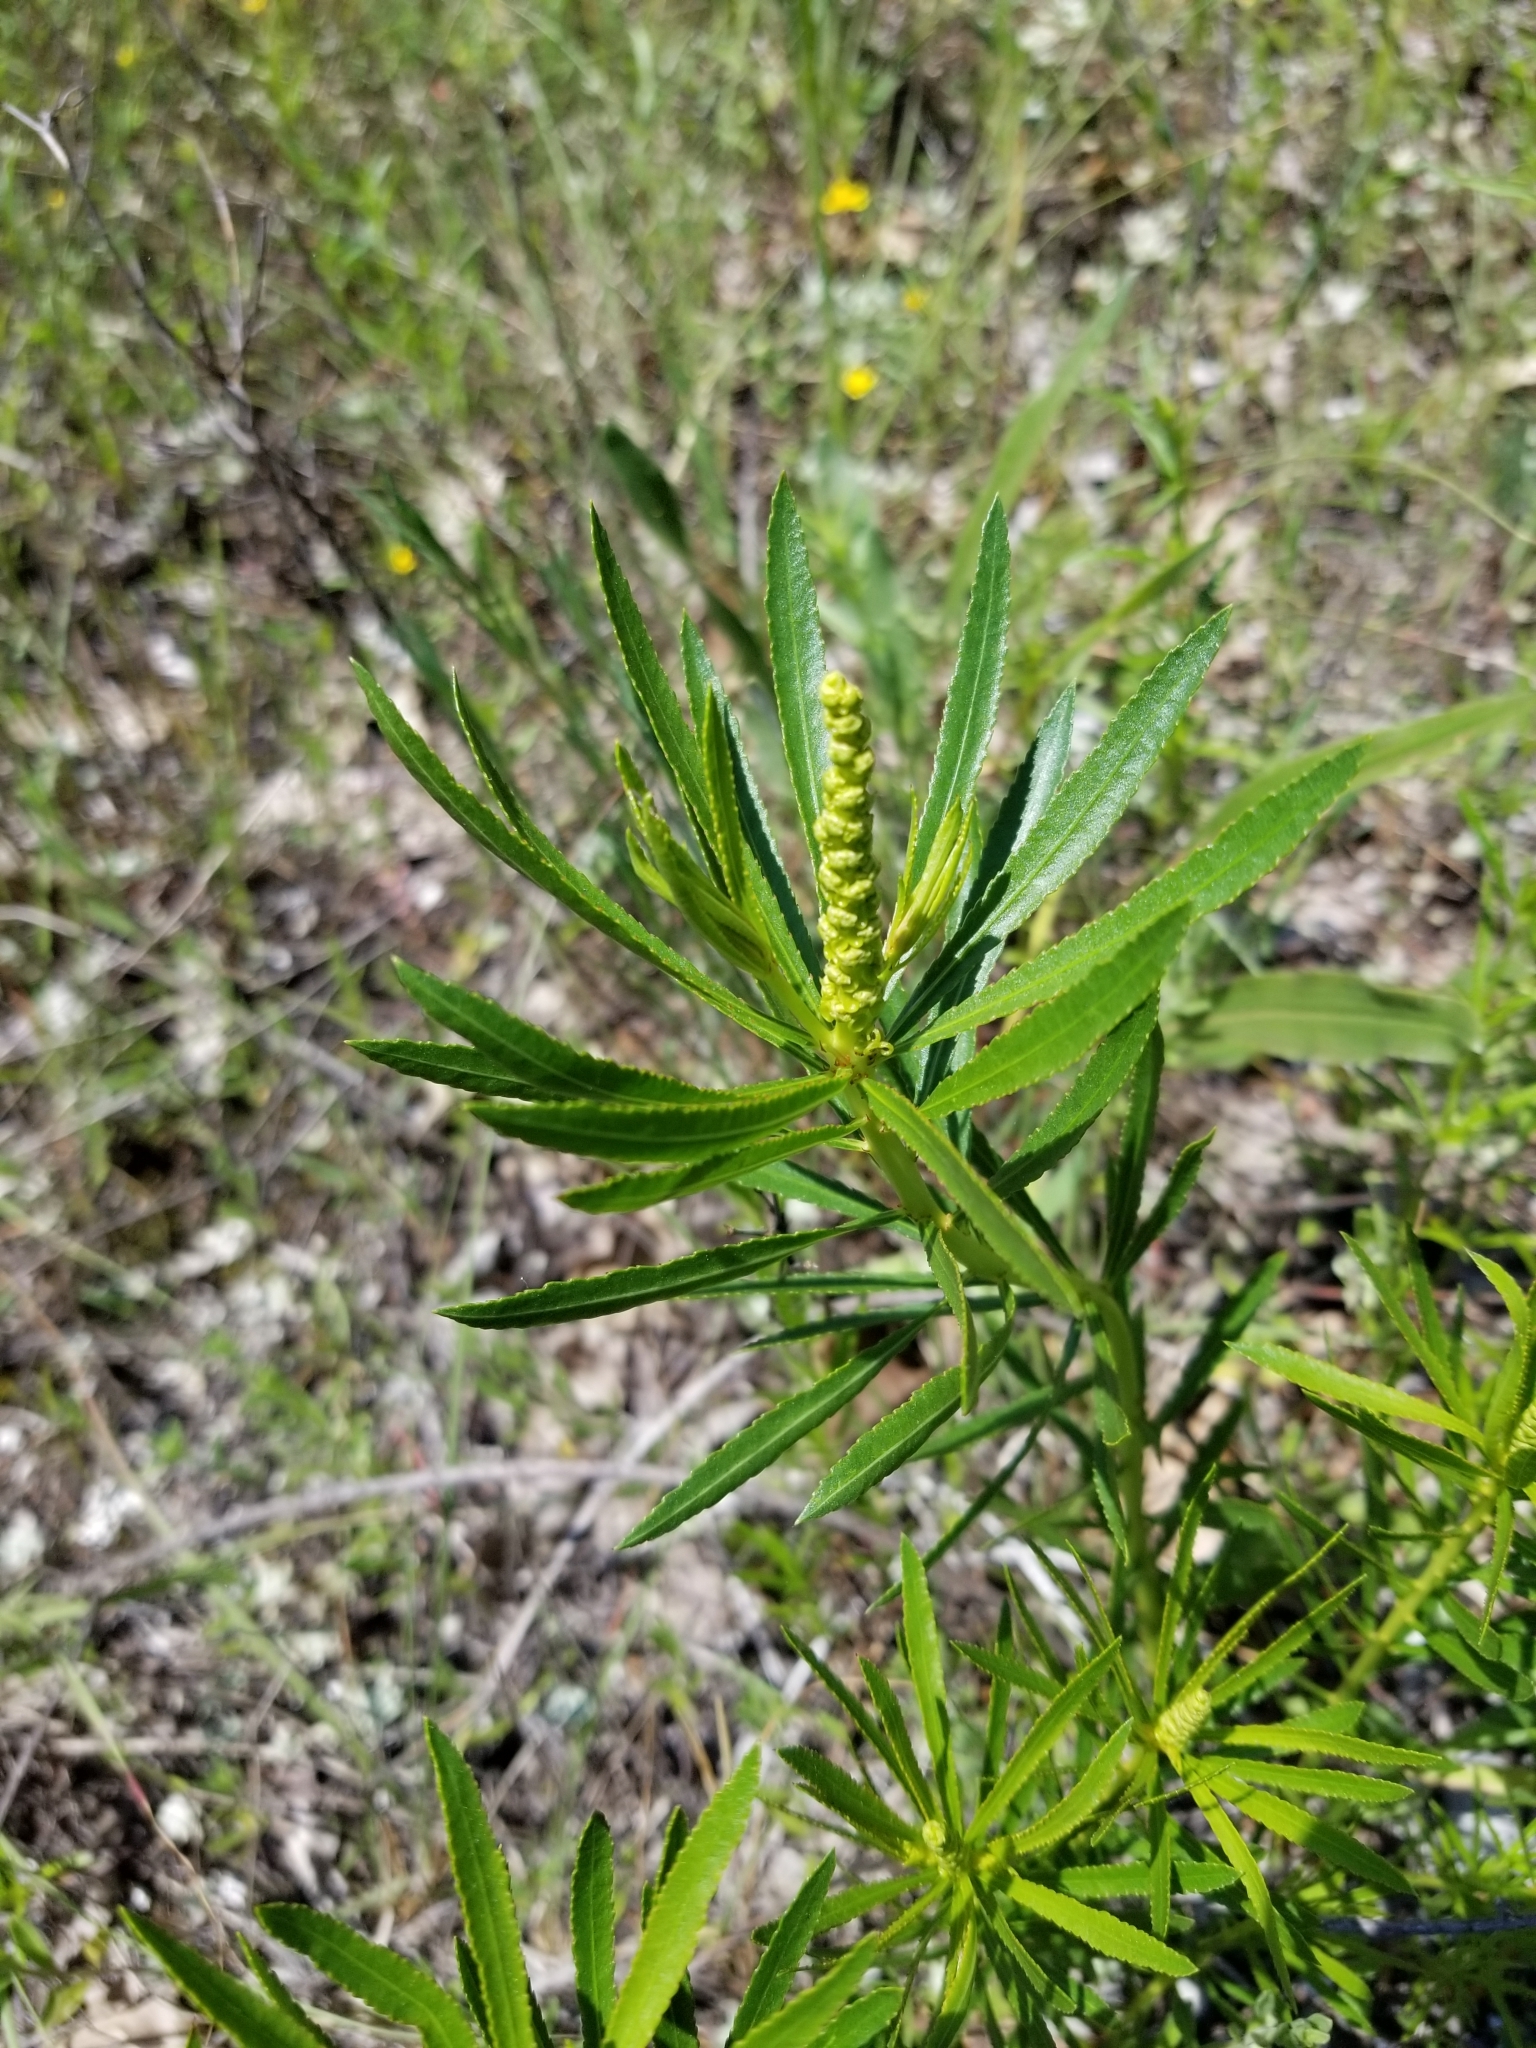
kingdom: Plantae
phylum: Tracheophyta
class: Magnoliopsida
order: Malpighiales
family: Euphorbiaceae
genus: Stillingia
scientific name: Stillingia texana
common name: Texas stillingia
